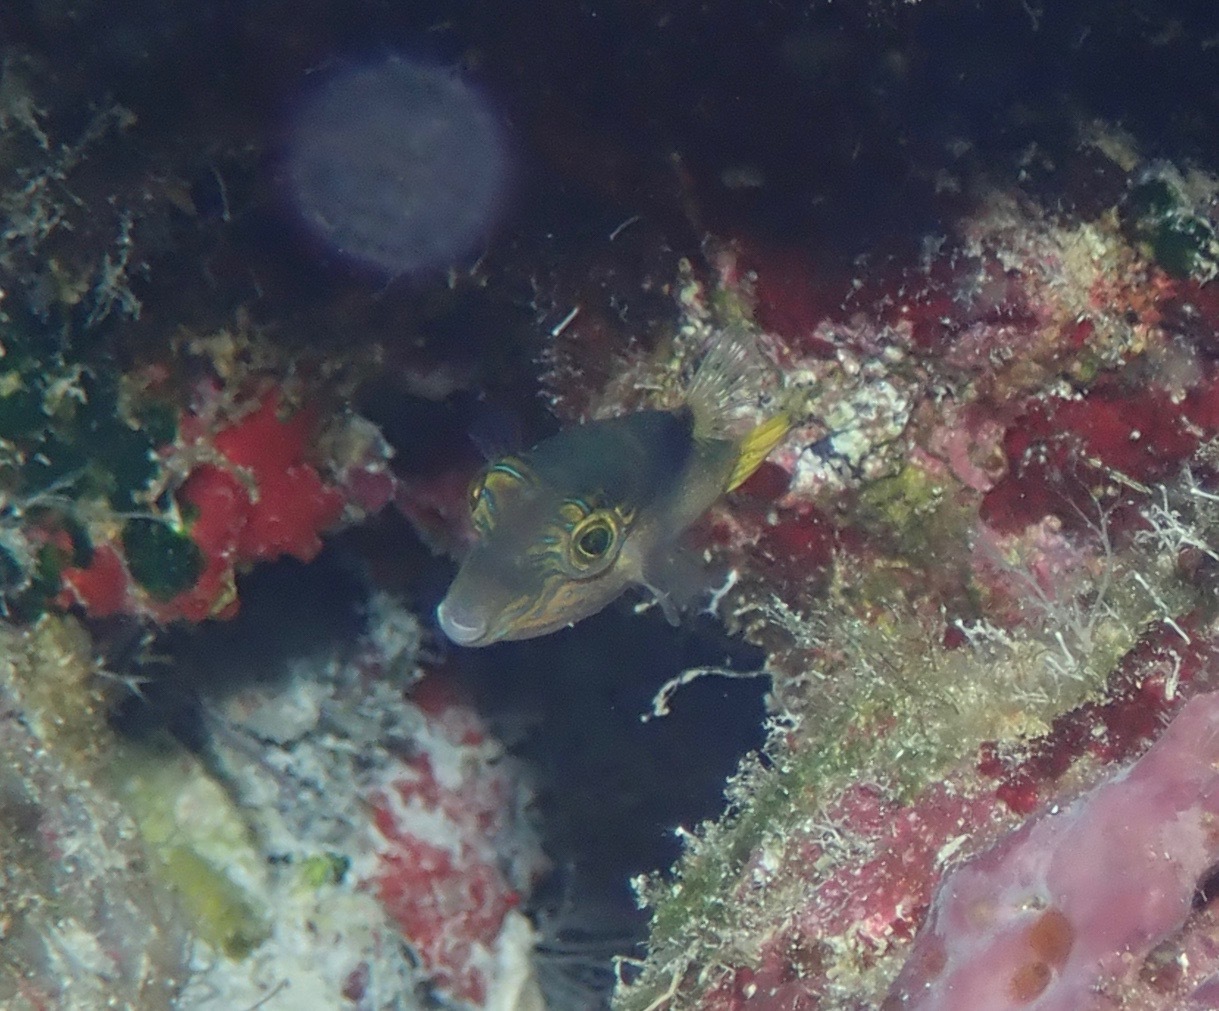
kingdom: Animalia
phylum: Chordata
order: Tetraodontiformes
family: Tetraodontidae
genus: Canthigaster
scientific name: Canthigaster epilampra
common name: Lantern toby
